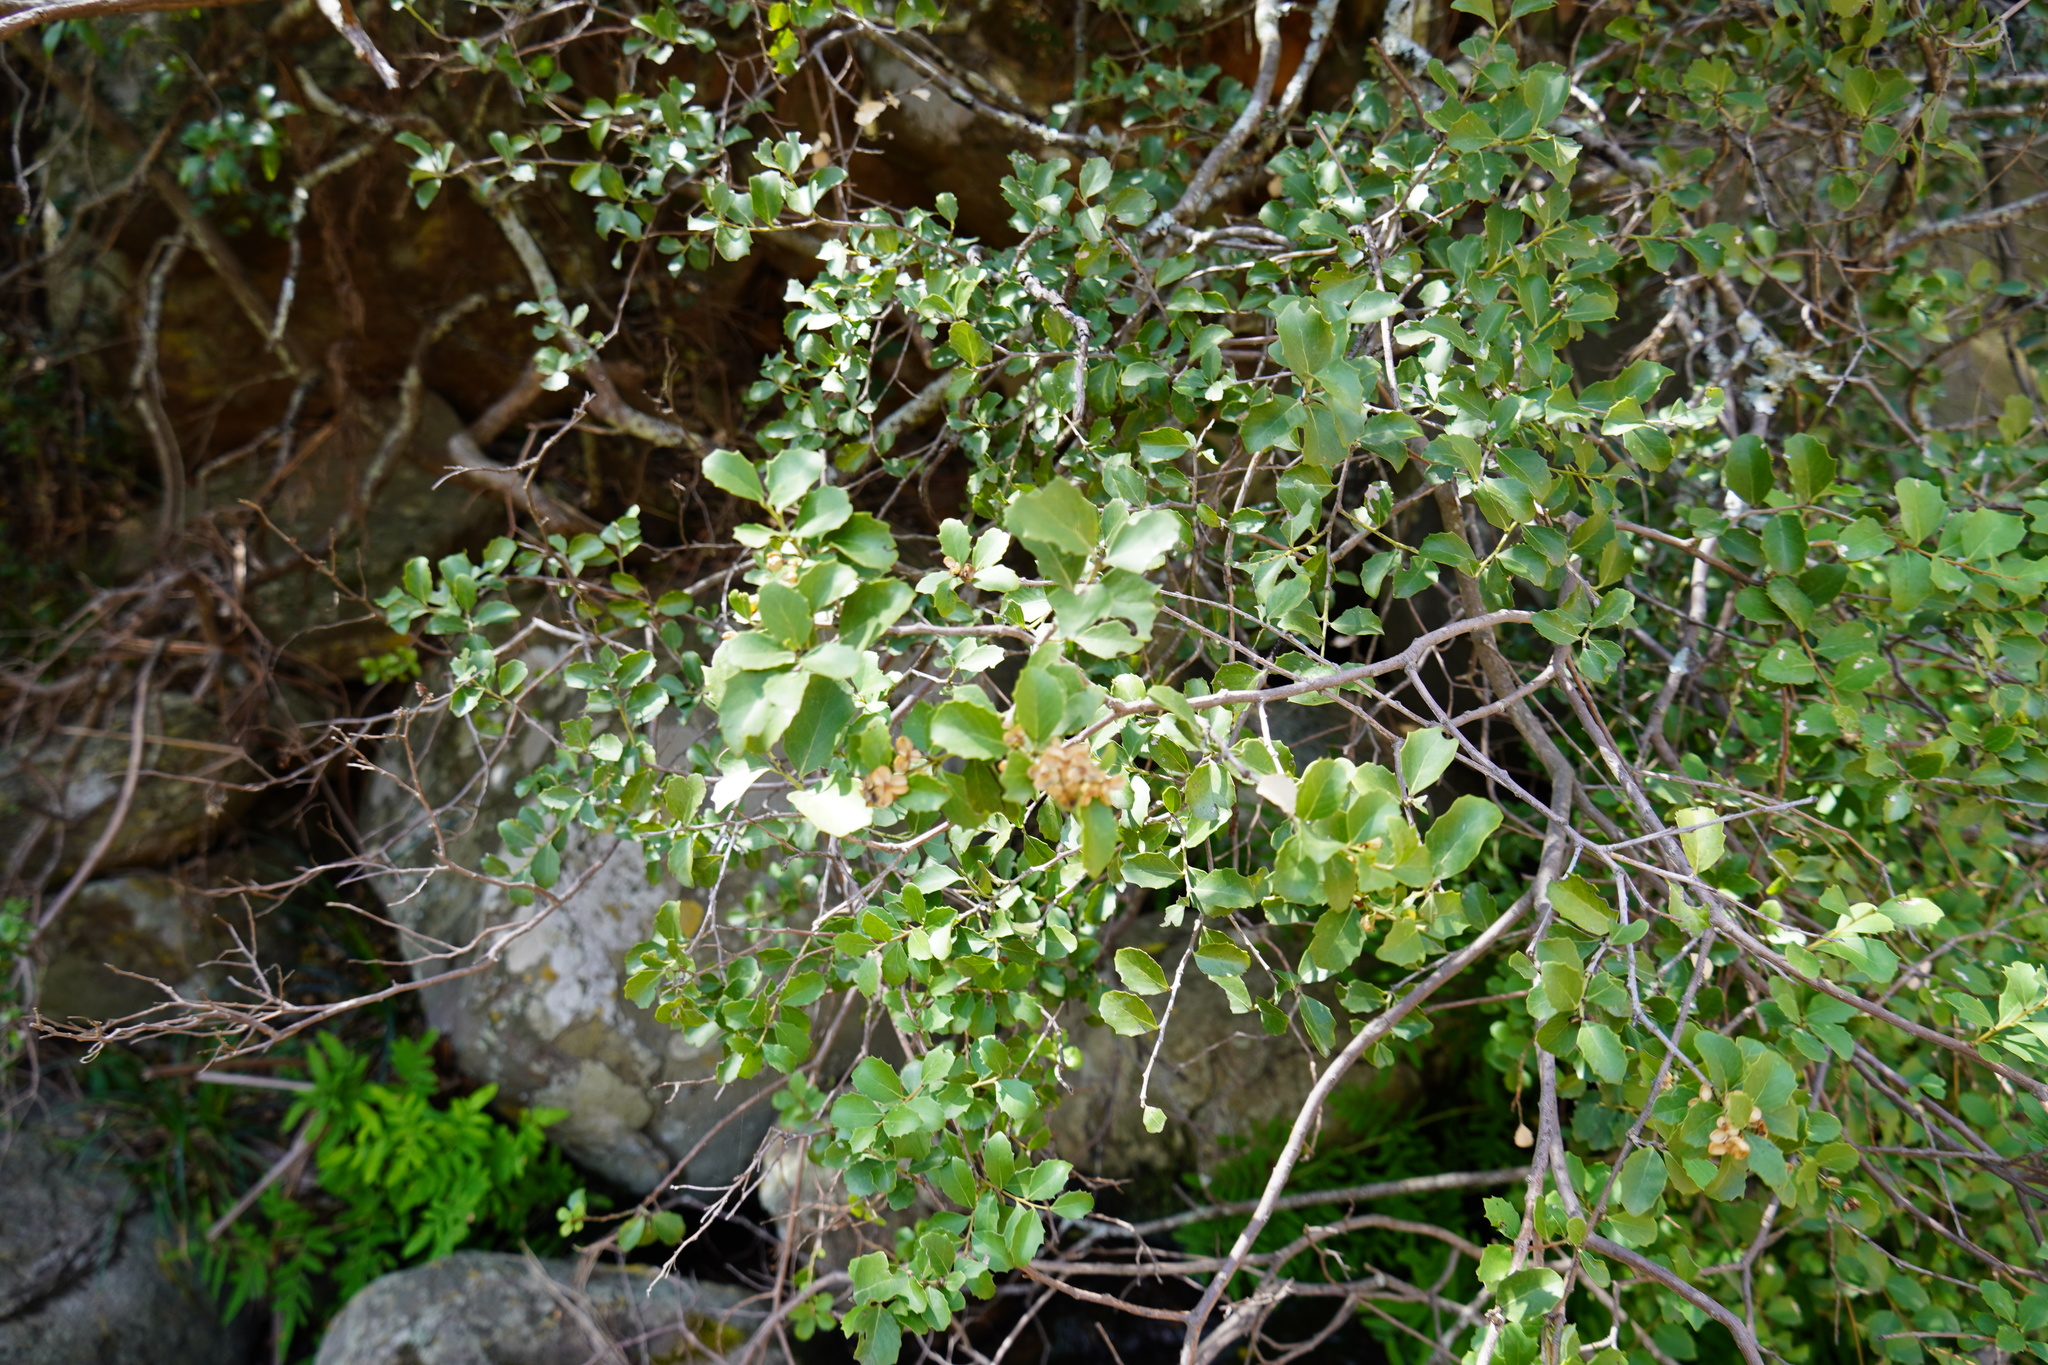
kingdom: Plantae
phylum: Tracheophyta
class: Magnoliopsida
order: Celastrales
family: Celastraceae
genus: Gymnosporia
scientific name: Gymnosporia undata
